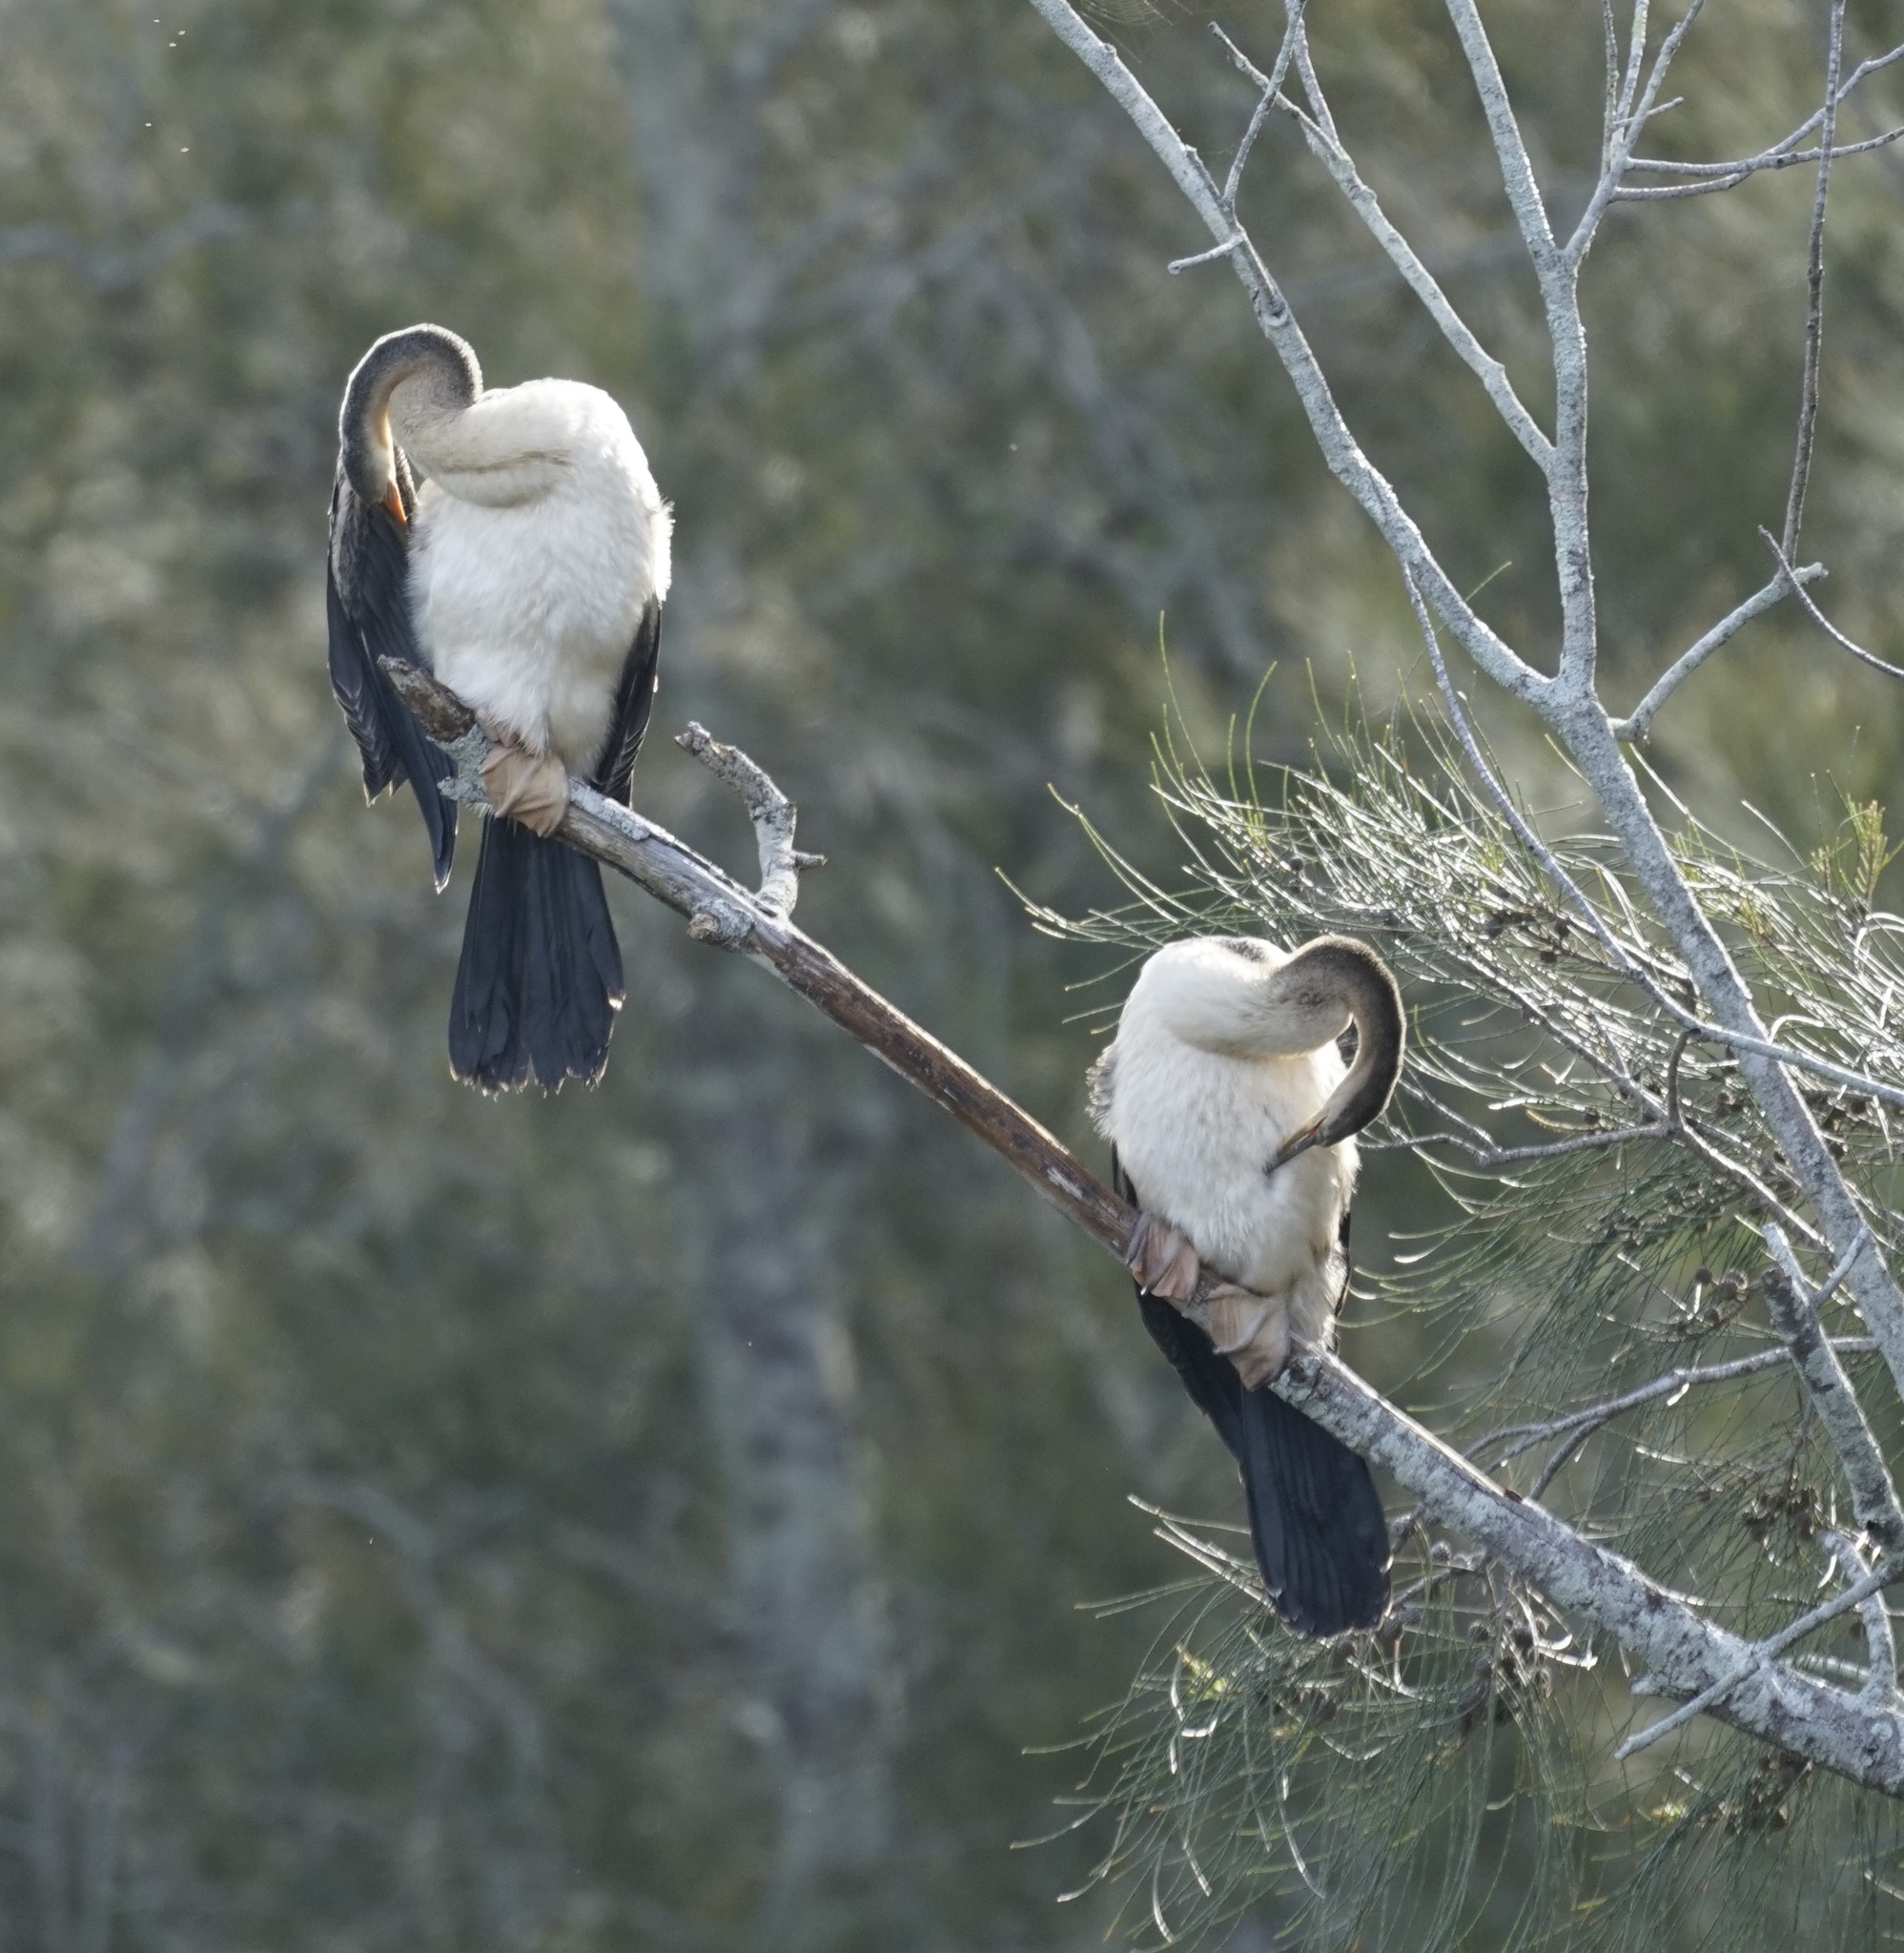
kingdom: Animalia
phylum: Chordata
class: Aves
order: Suliformes
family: Anhingidae
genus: Anhinga
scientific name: Anhinga novaehollandiae
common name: Australasian darter
